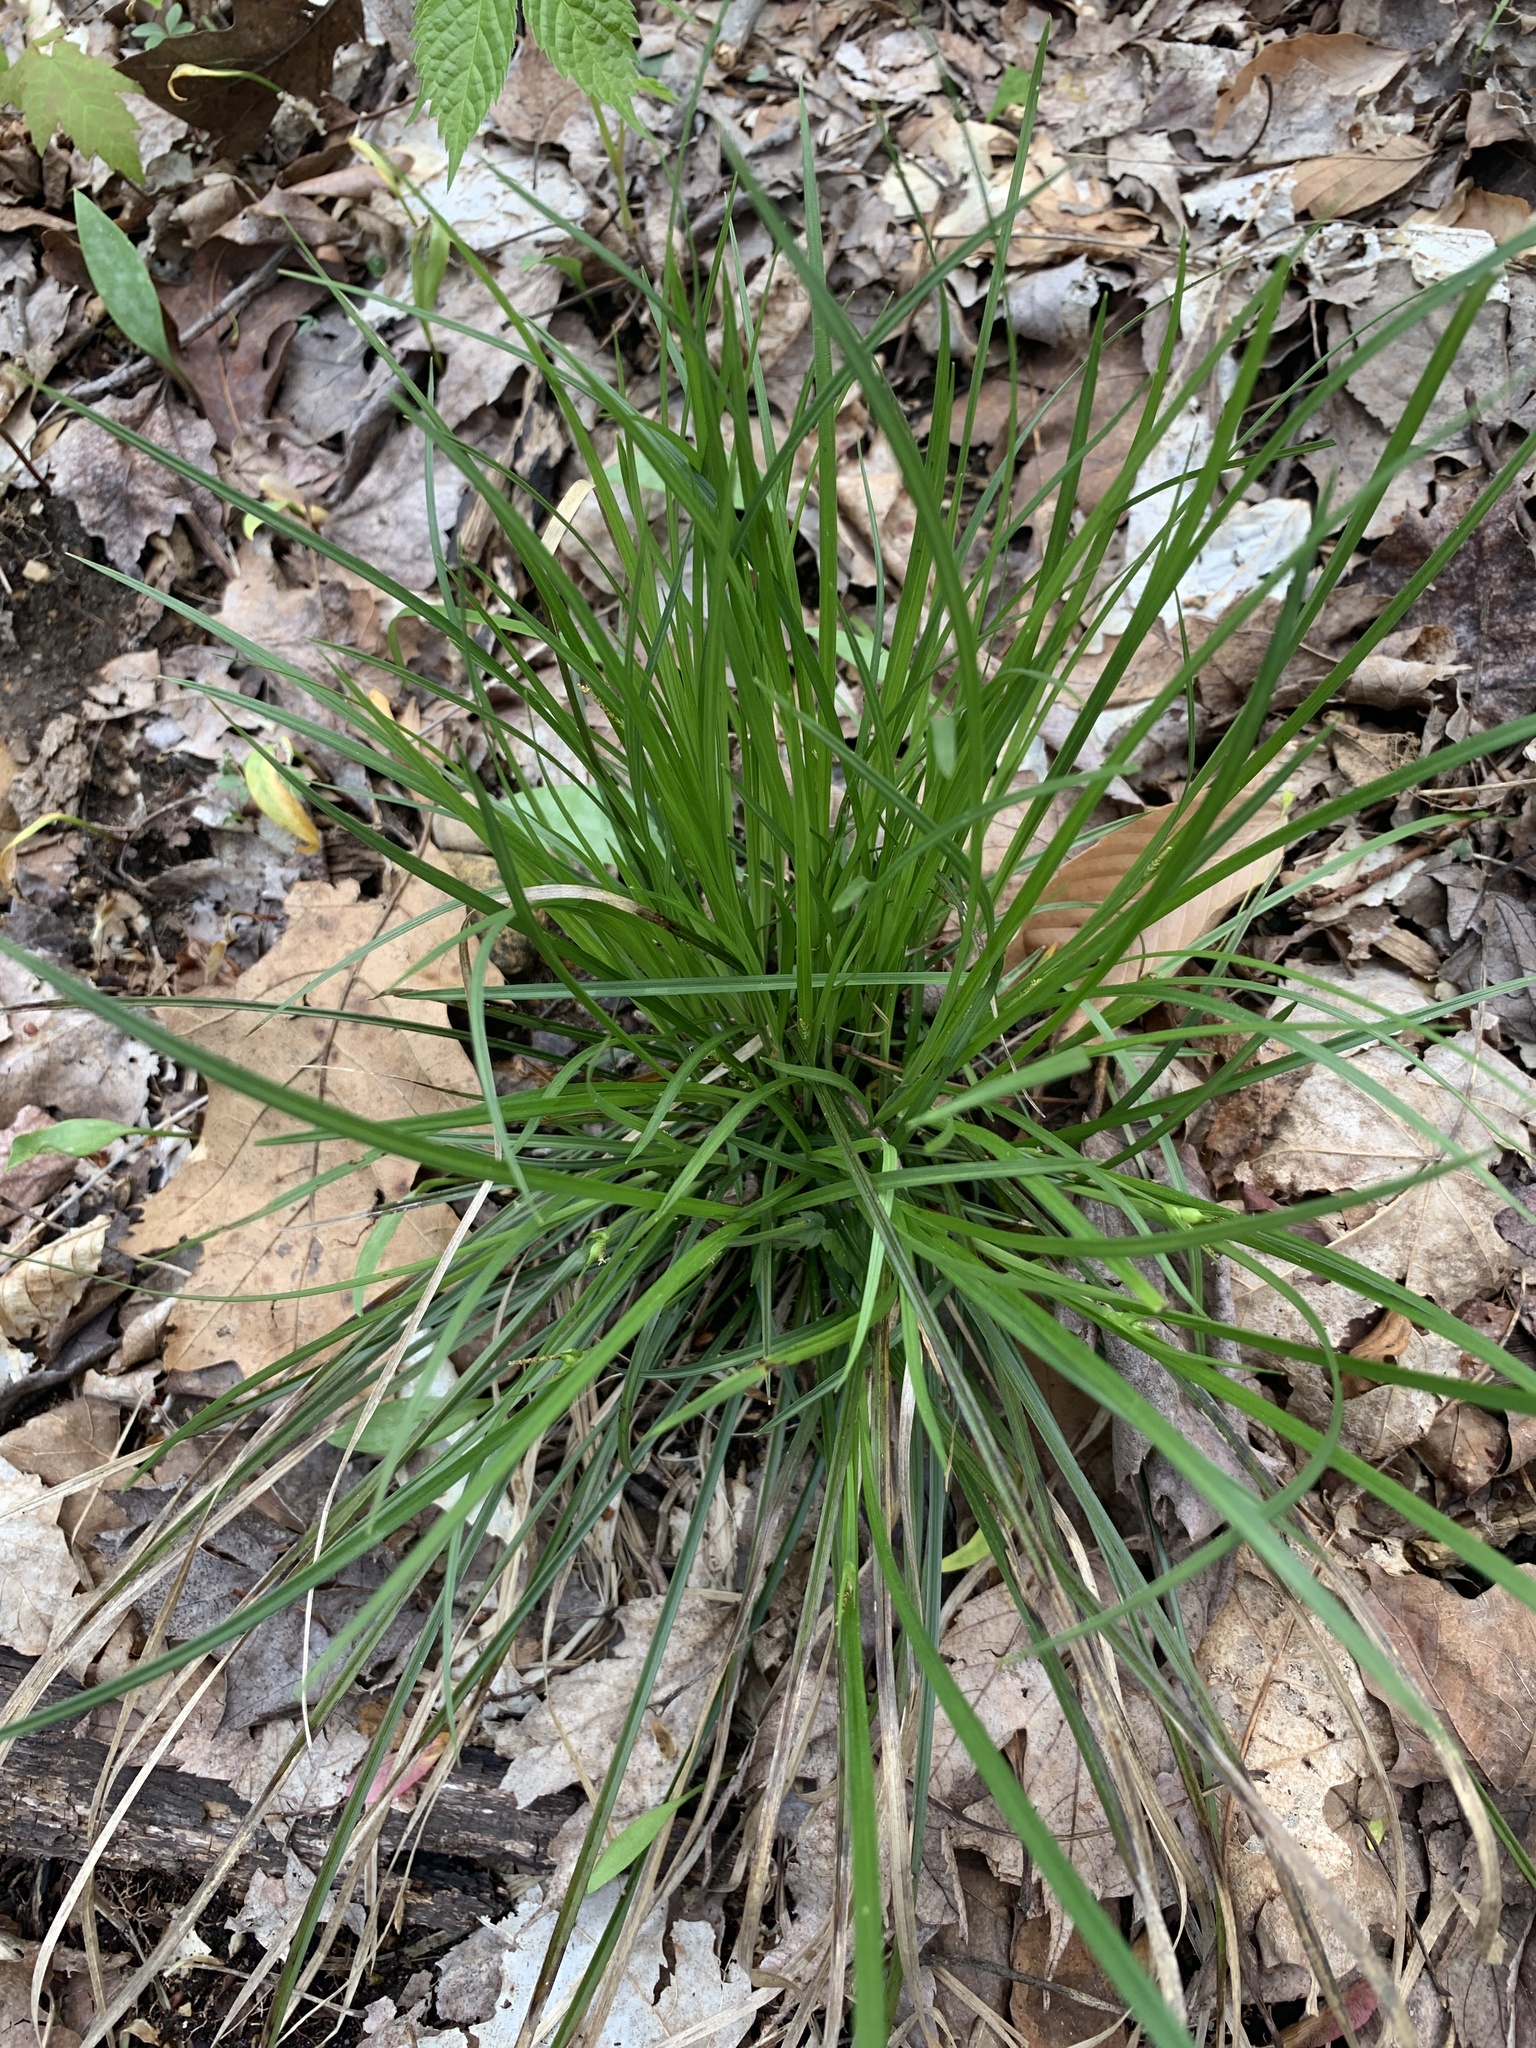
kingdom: Plantae
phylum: Tracheophyta
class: Liliopsida
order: Poales
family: Cyperaceae
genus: Carex
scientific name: Carex jamesii
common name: Grass sedge
